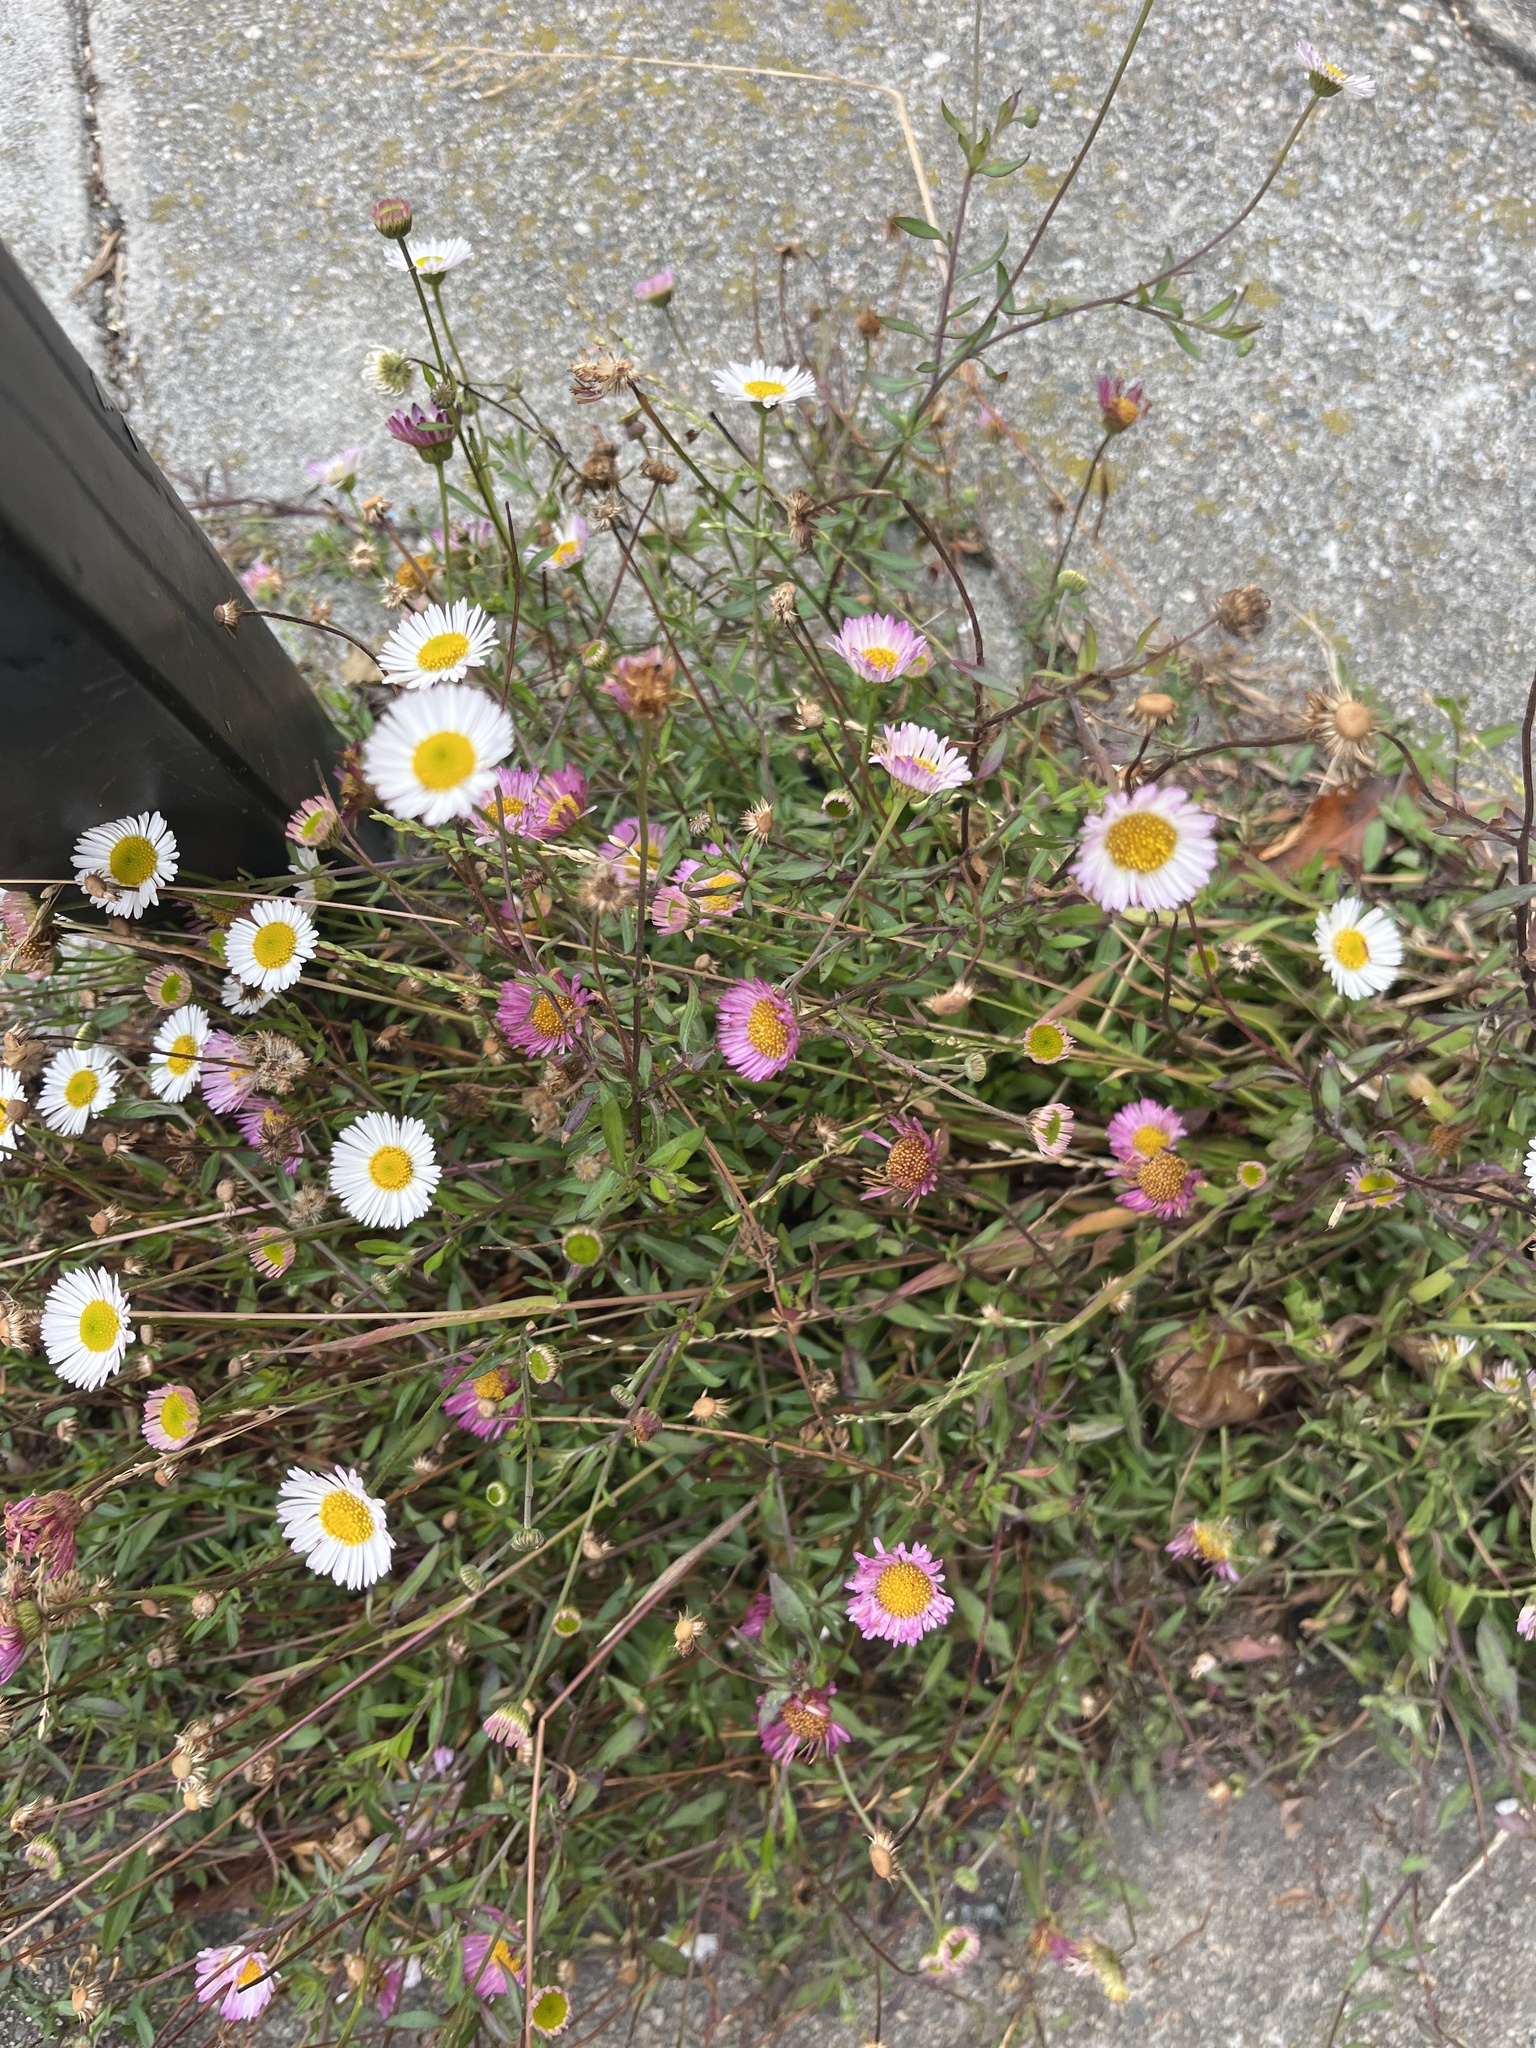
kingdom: Plantae
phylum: Tracheophyta
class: Magnoliopsida
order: Asterales
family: Asteraceae
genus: Erigeron
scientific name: Erigeron karvinskianus
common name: Mexican fleabane
